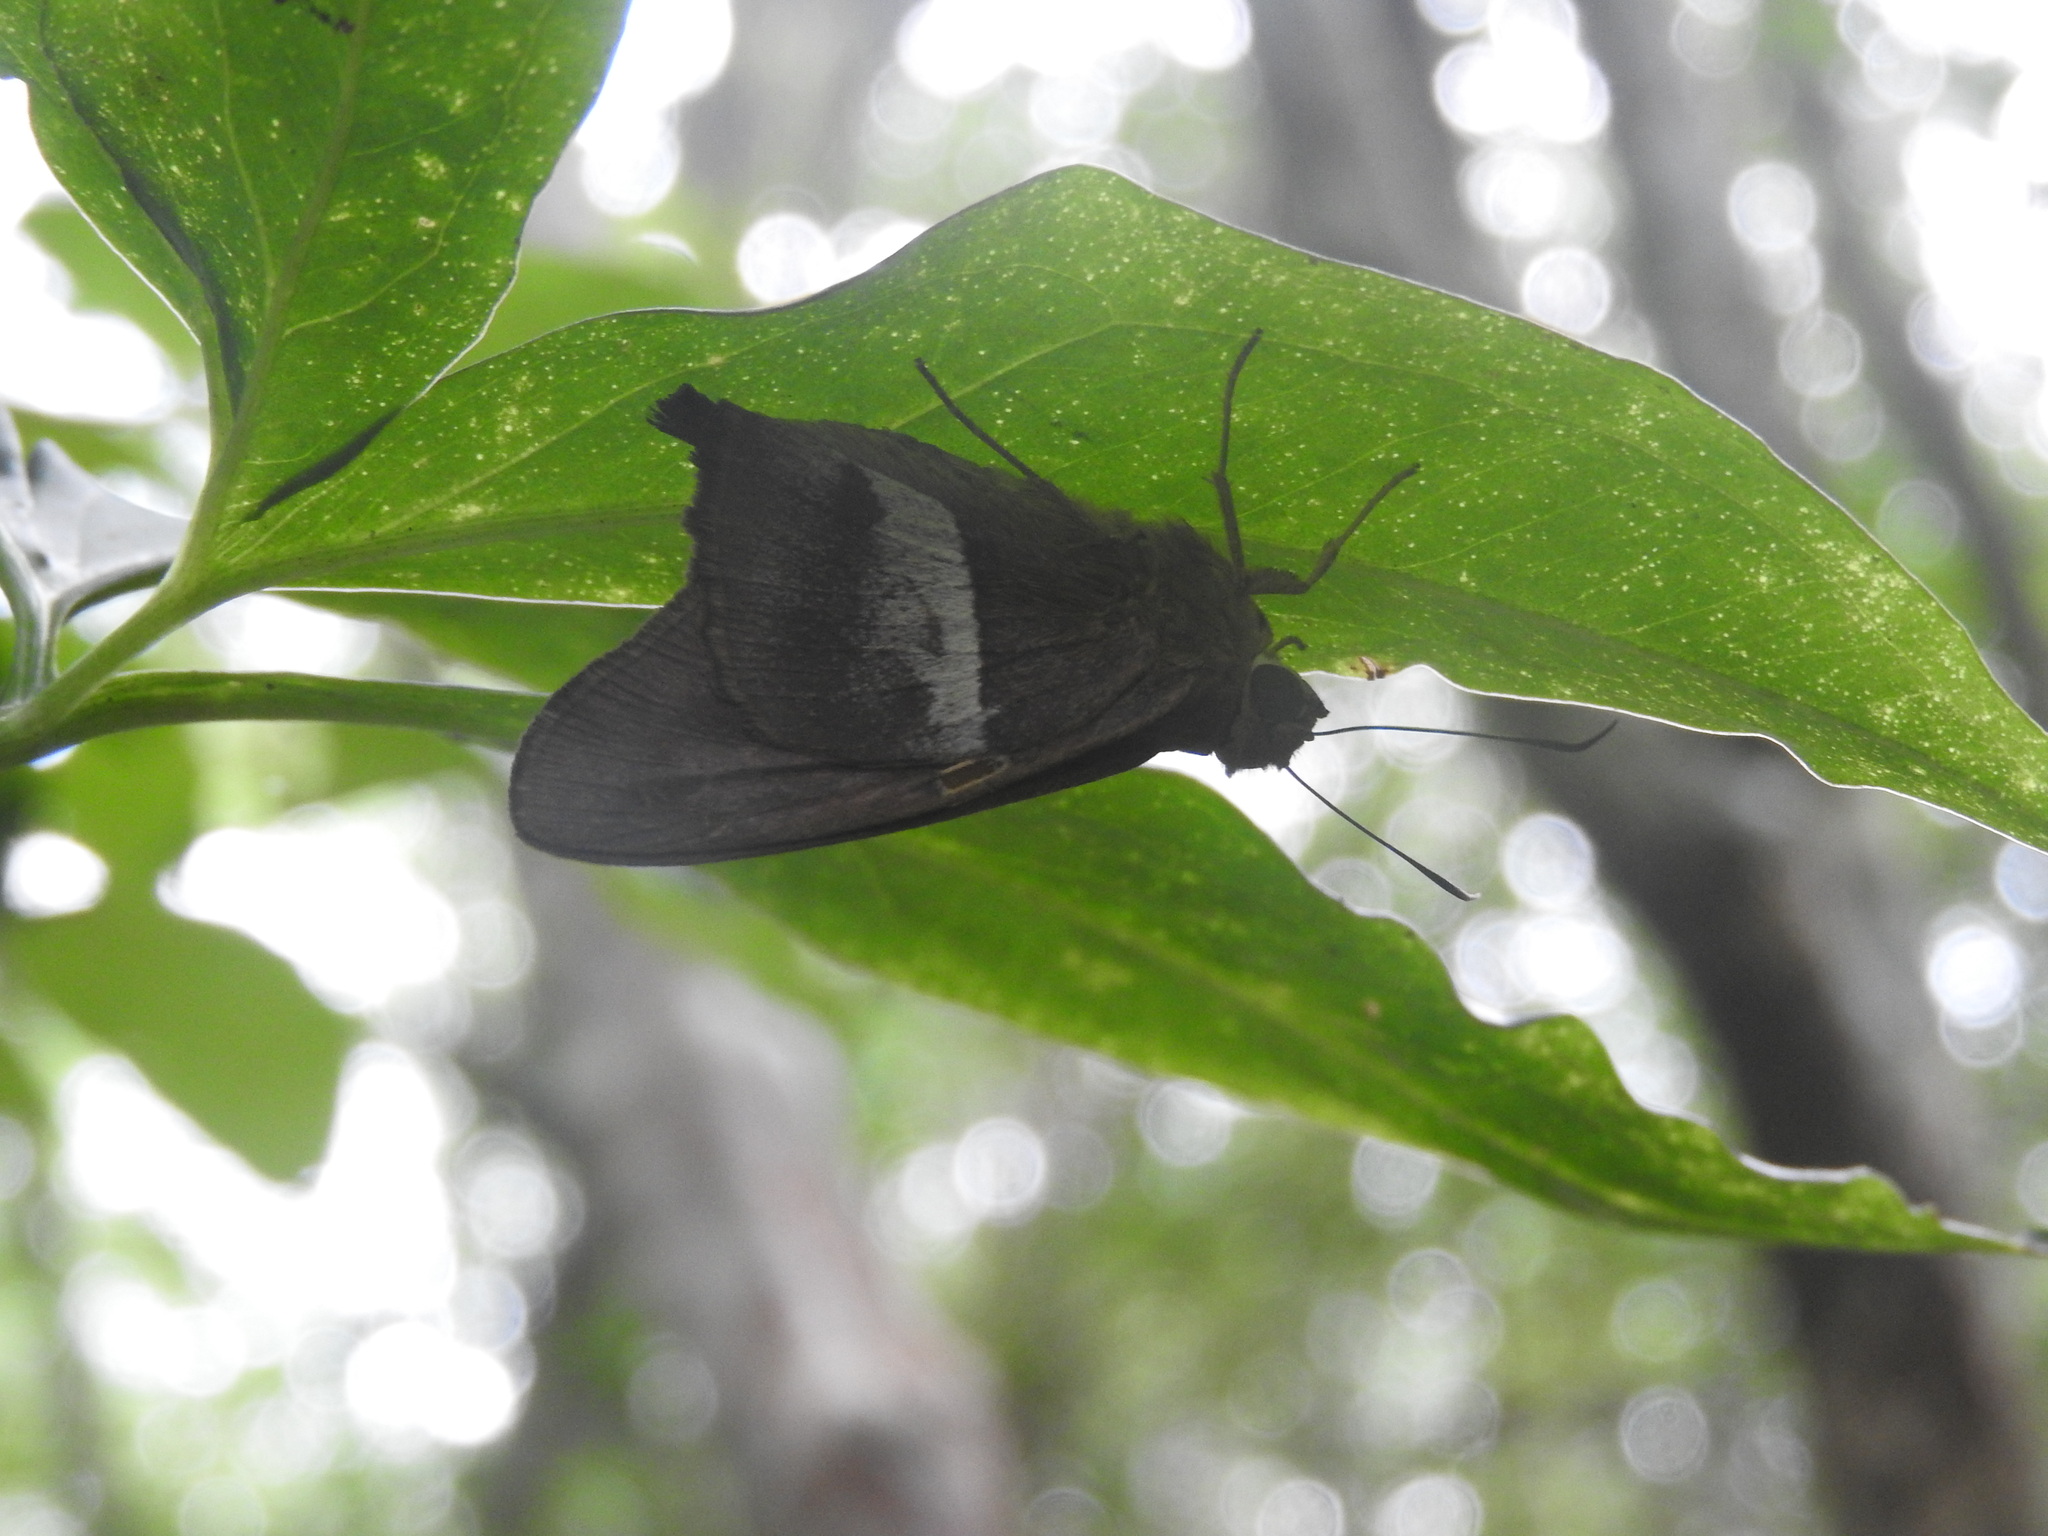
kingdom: Animalia
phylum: Arthropoda
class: Insecta
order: Lepidoptera
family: Hesperiidae
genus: Aguna
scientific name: Aguna asander
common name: Gold-spotted aguna
